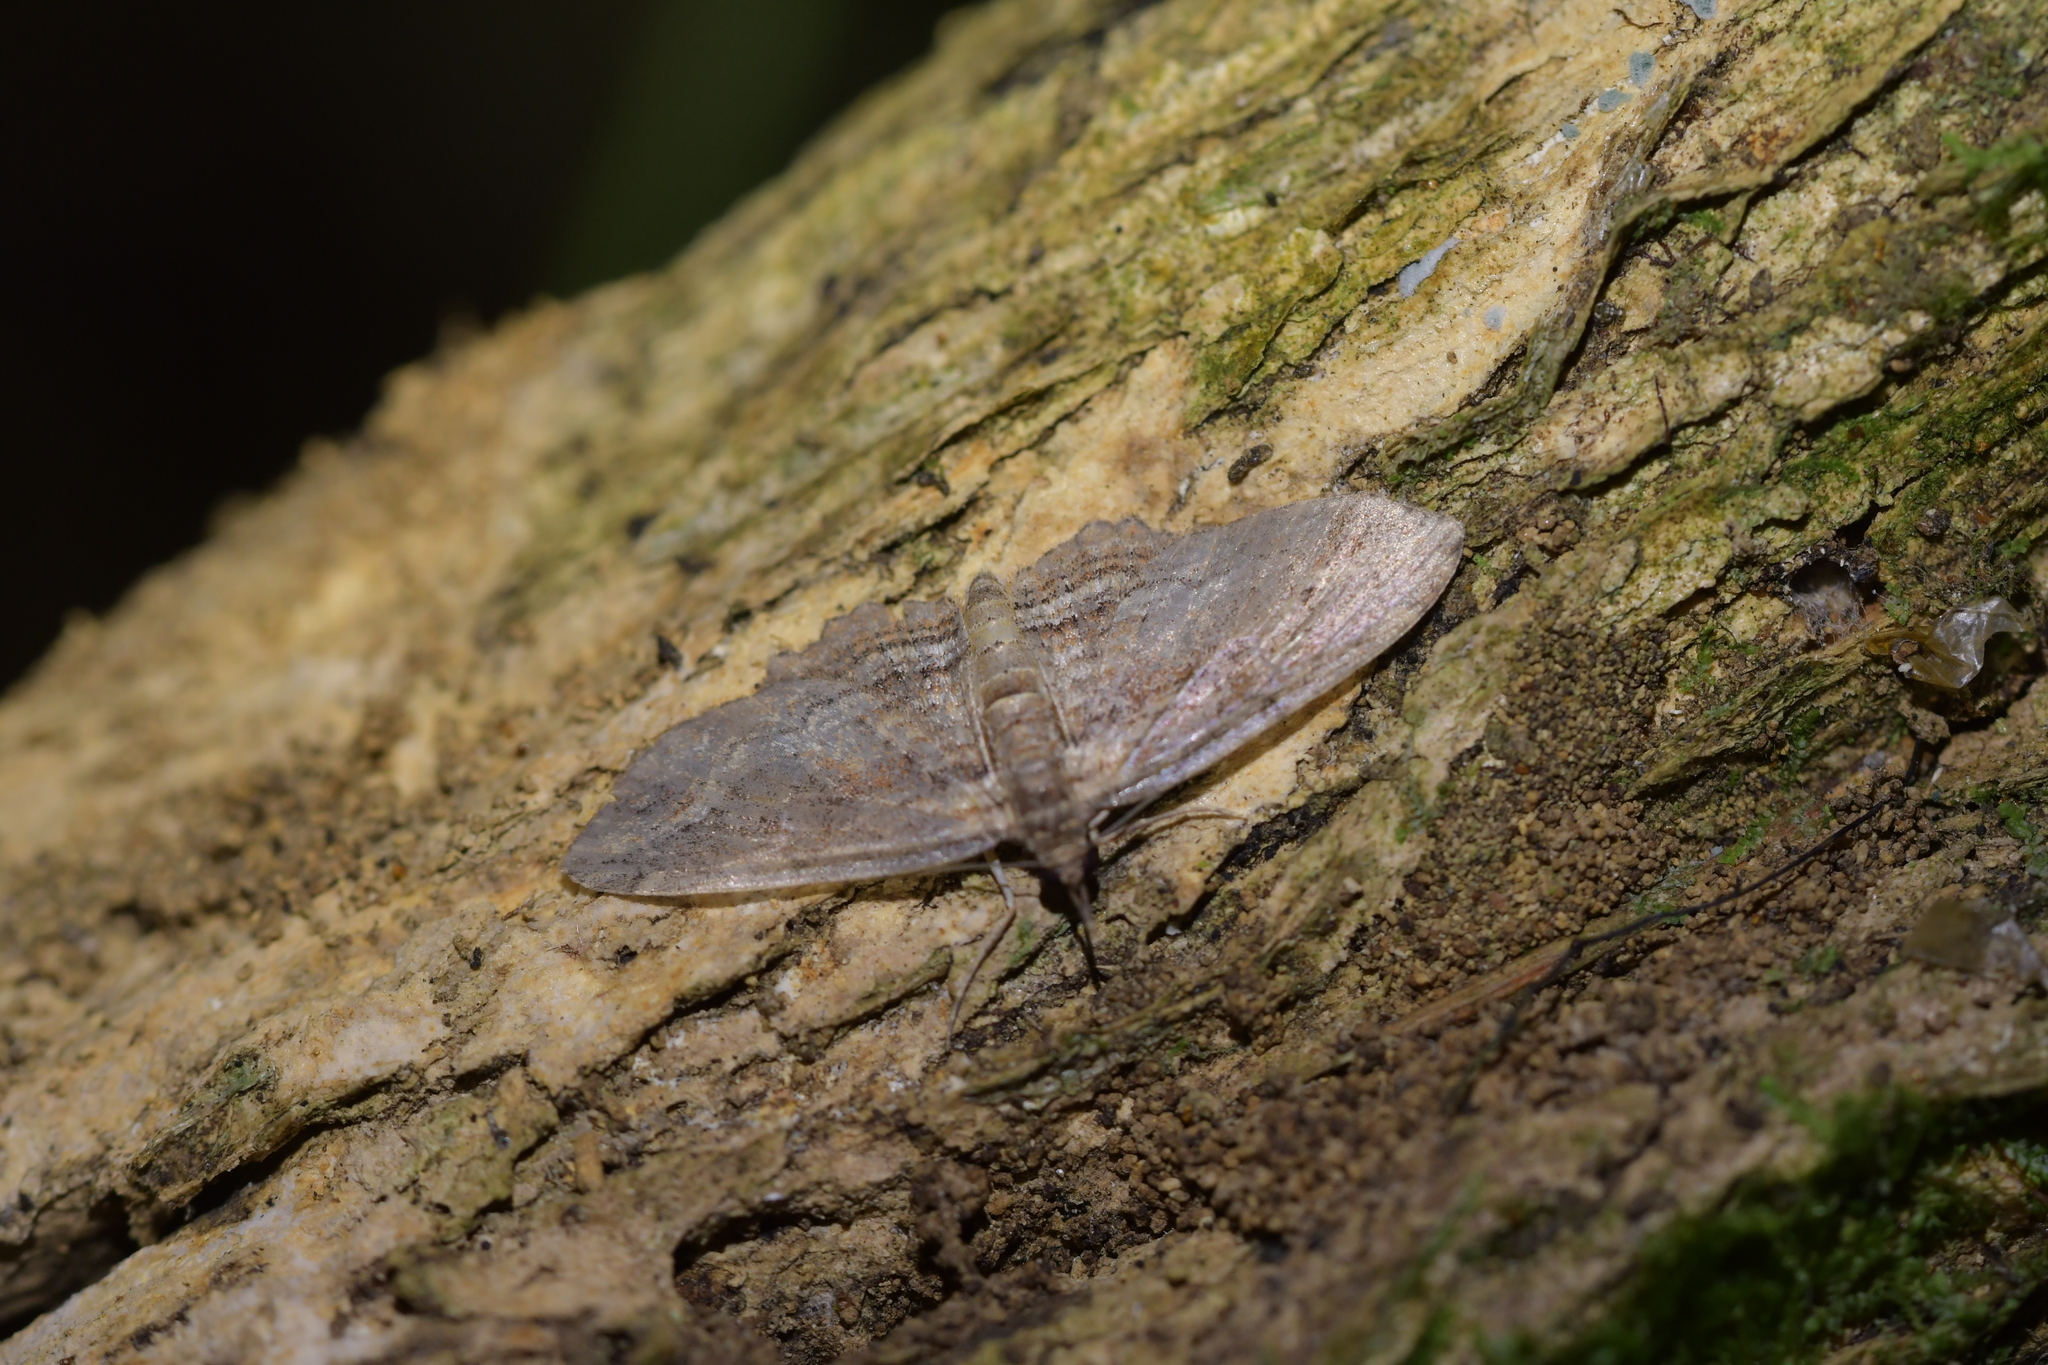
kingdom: Animalia
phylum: Arthropoda
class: Insecta
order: Lepidoptera
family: Geometridae
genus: Chloroclystis
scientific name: Chloroclystis filata
